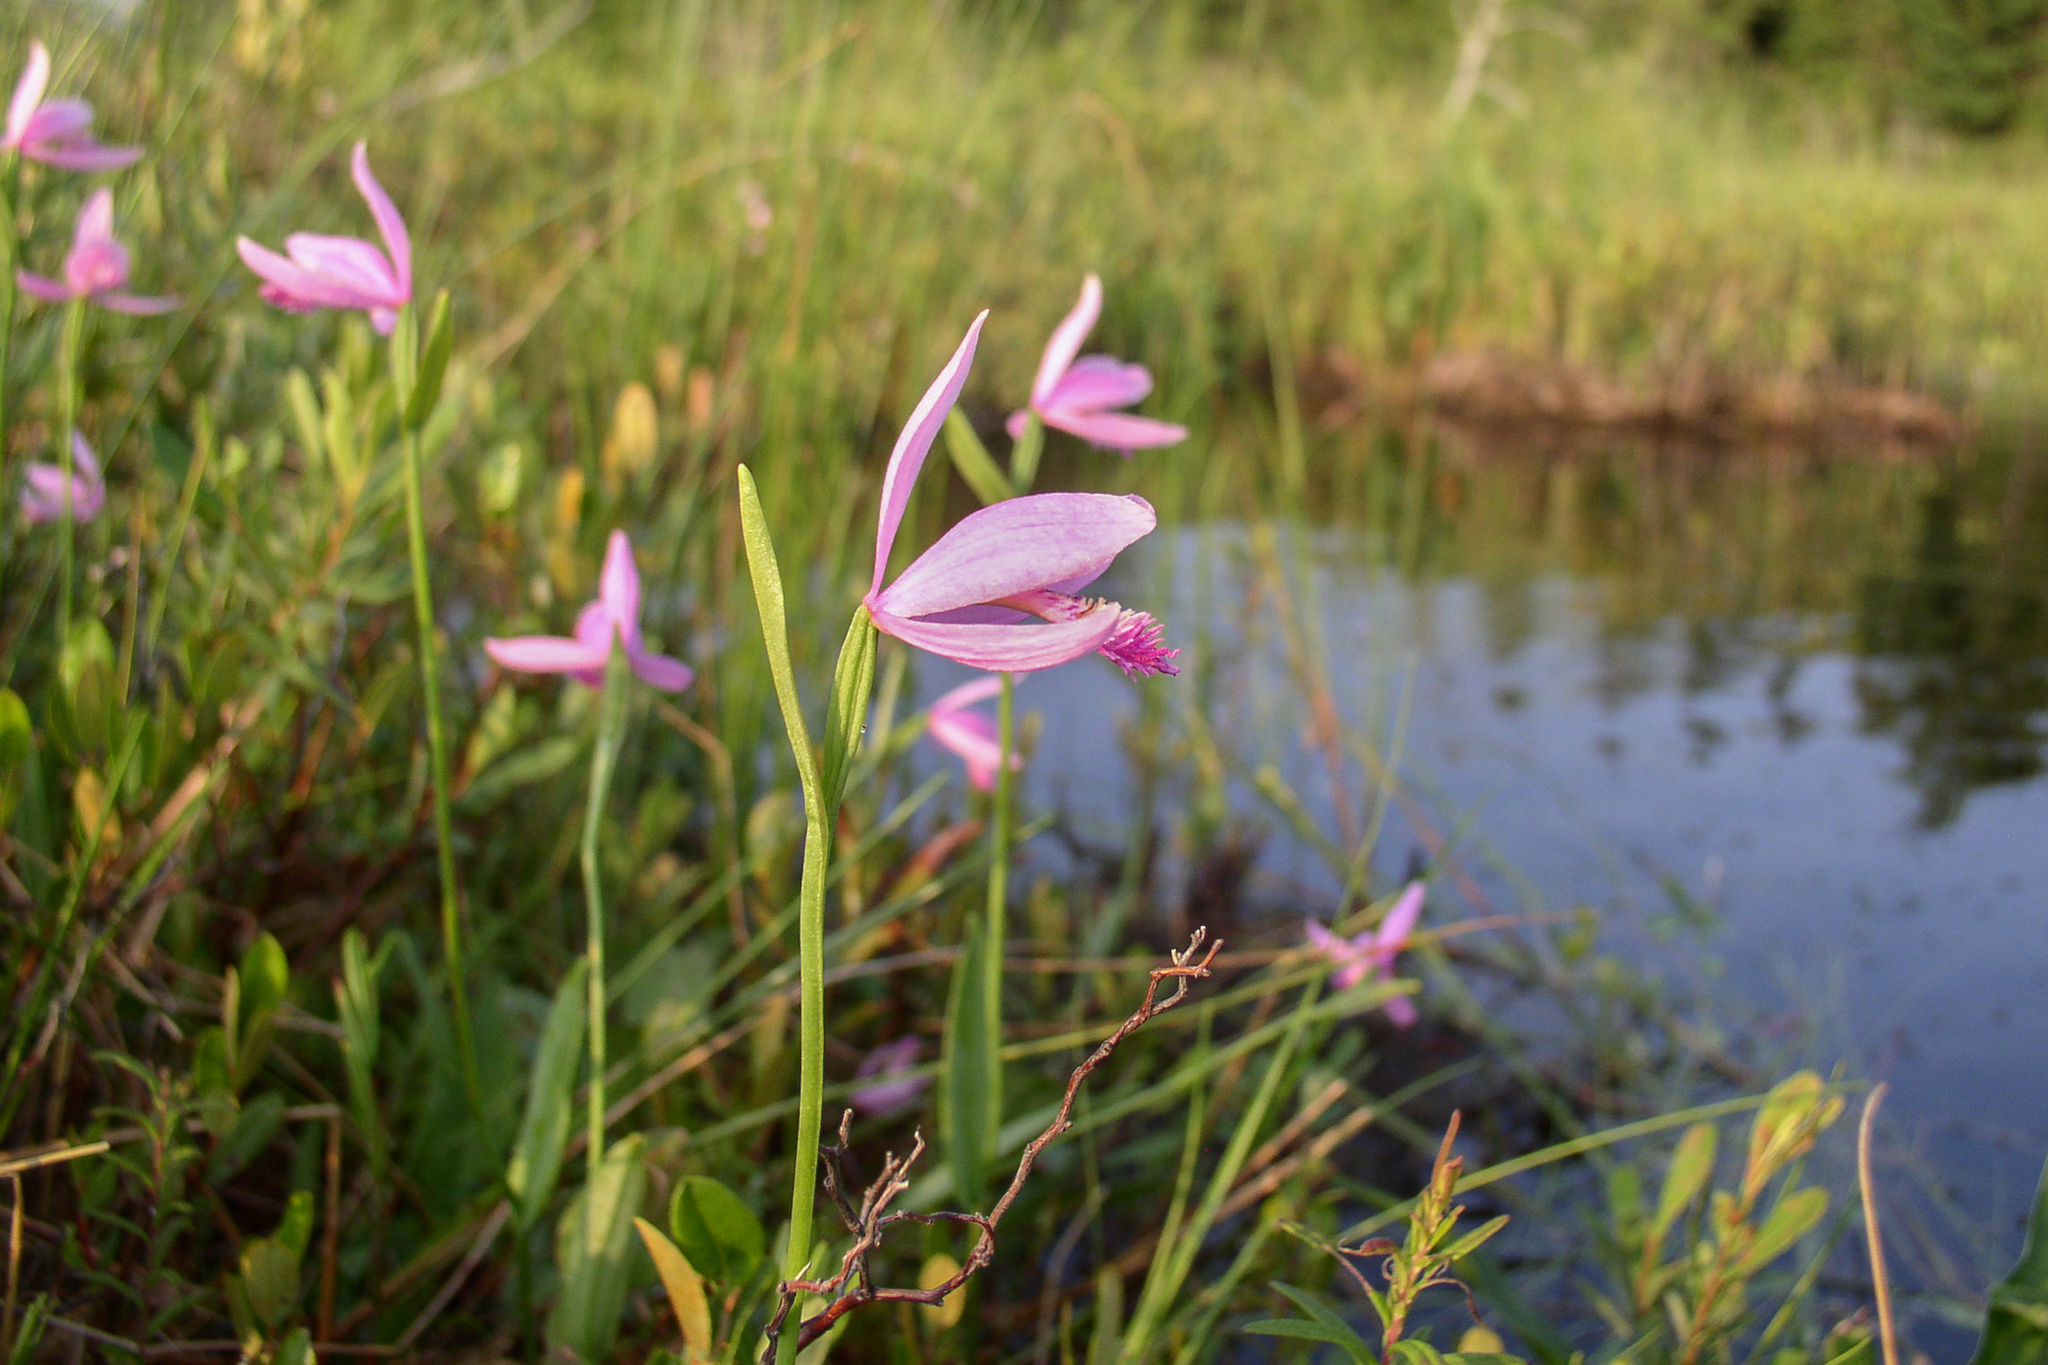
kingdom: Plantae
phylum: Tracheophyta
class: Liliopsida
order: Asparagales
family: Orchidaceae
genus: Pogonia
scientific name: Pogonia ophioglossoides
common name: Rose pogonia
